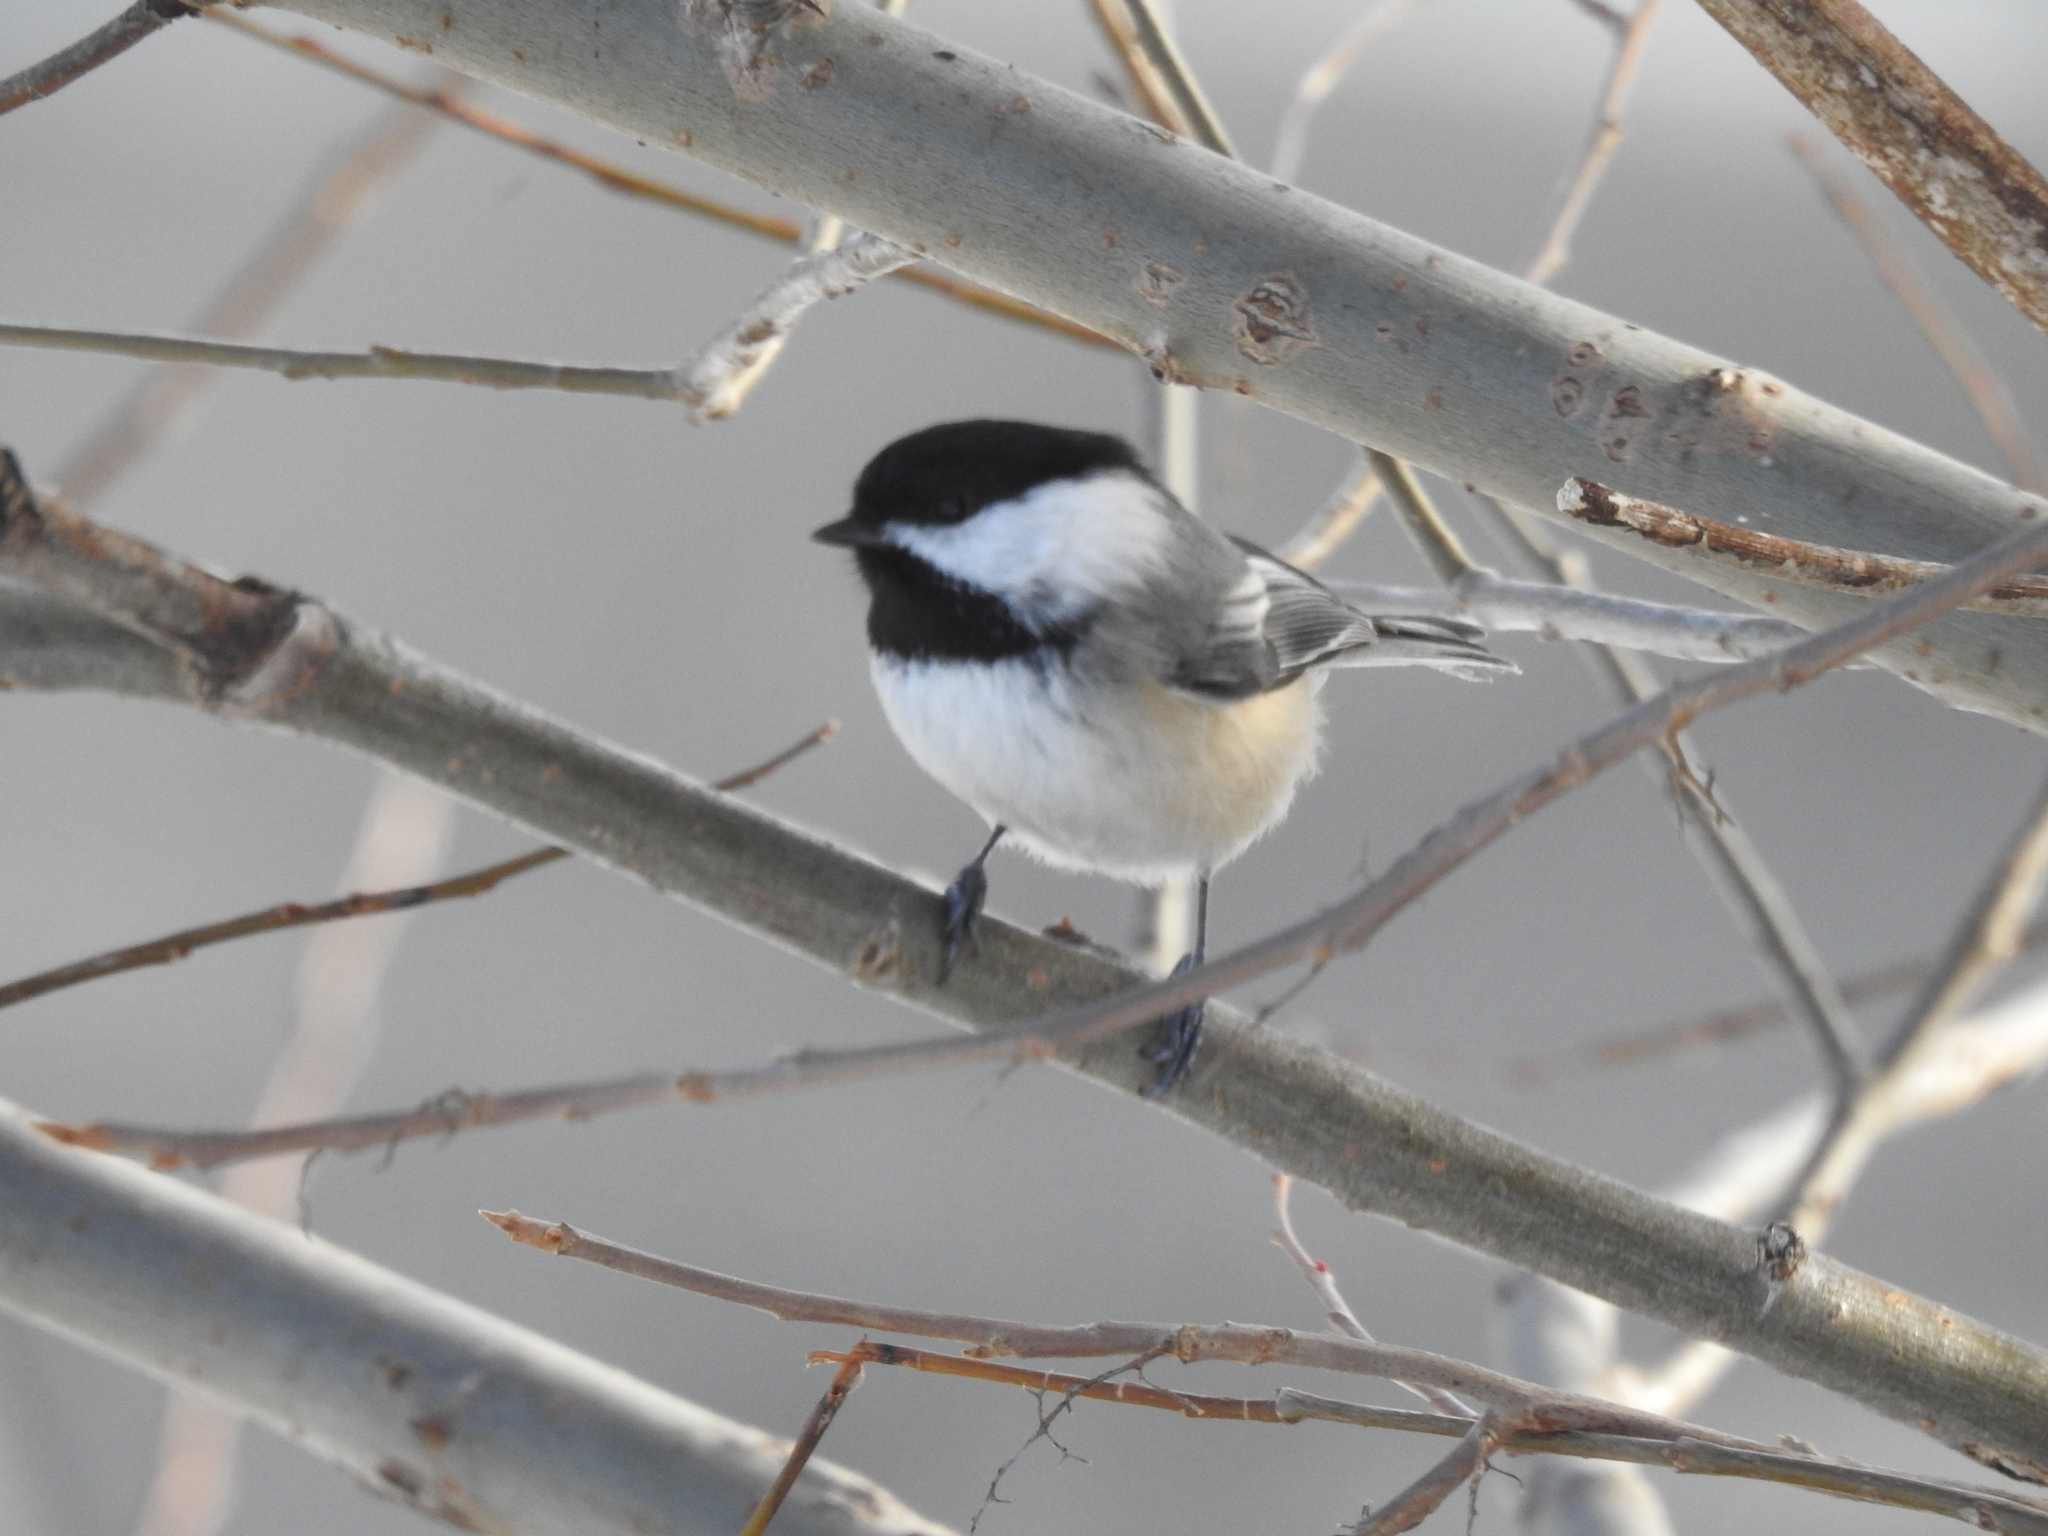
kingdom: Animalia
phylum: Chordata
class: Aves
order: Passeriformes
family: Paridae
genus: Poecile
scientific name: Poecile atricapillus
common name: Black-capped chickadee
